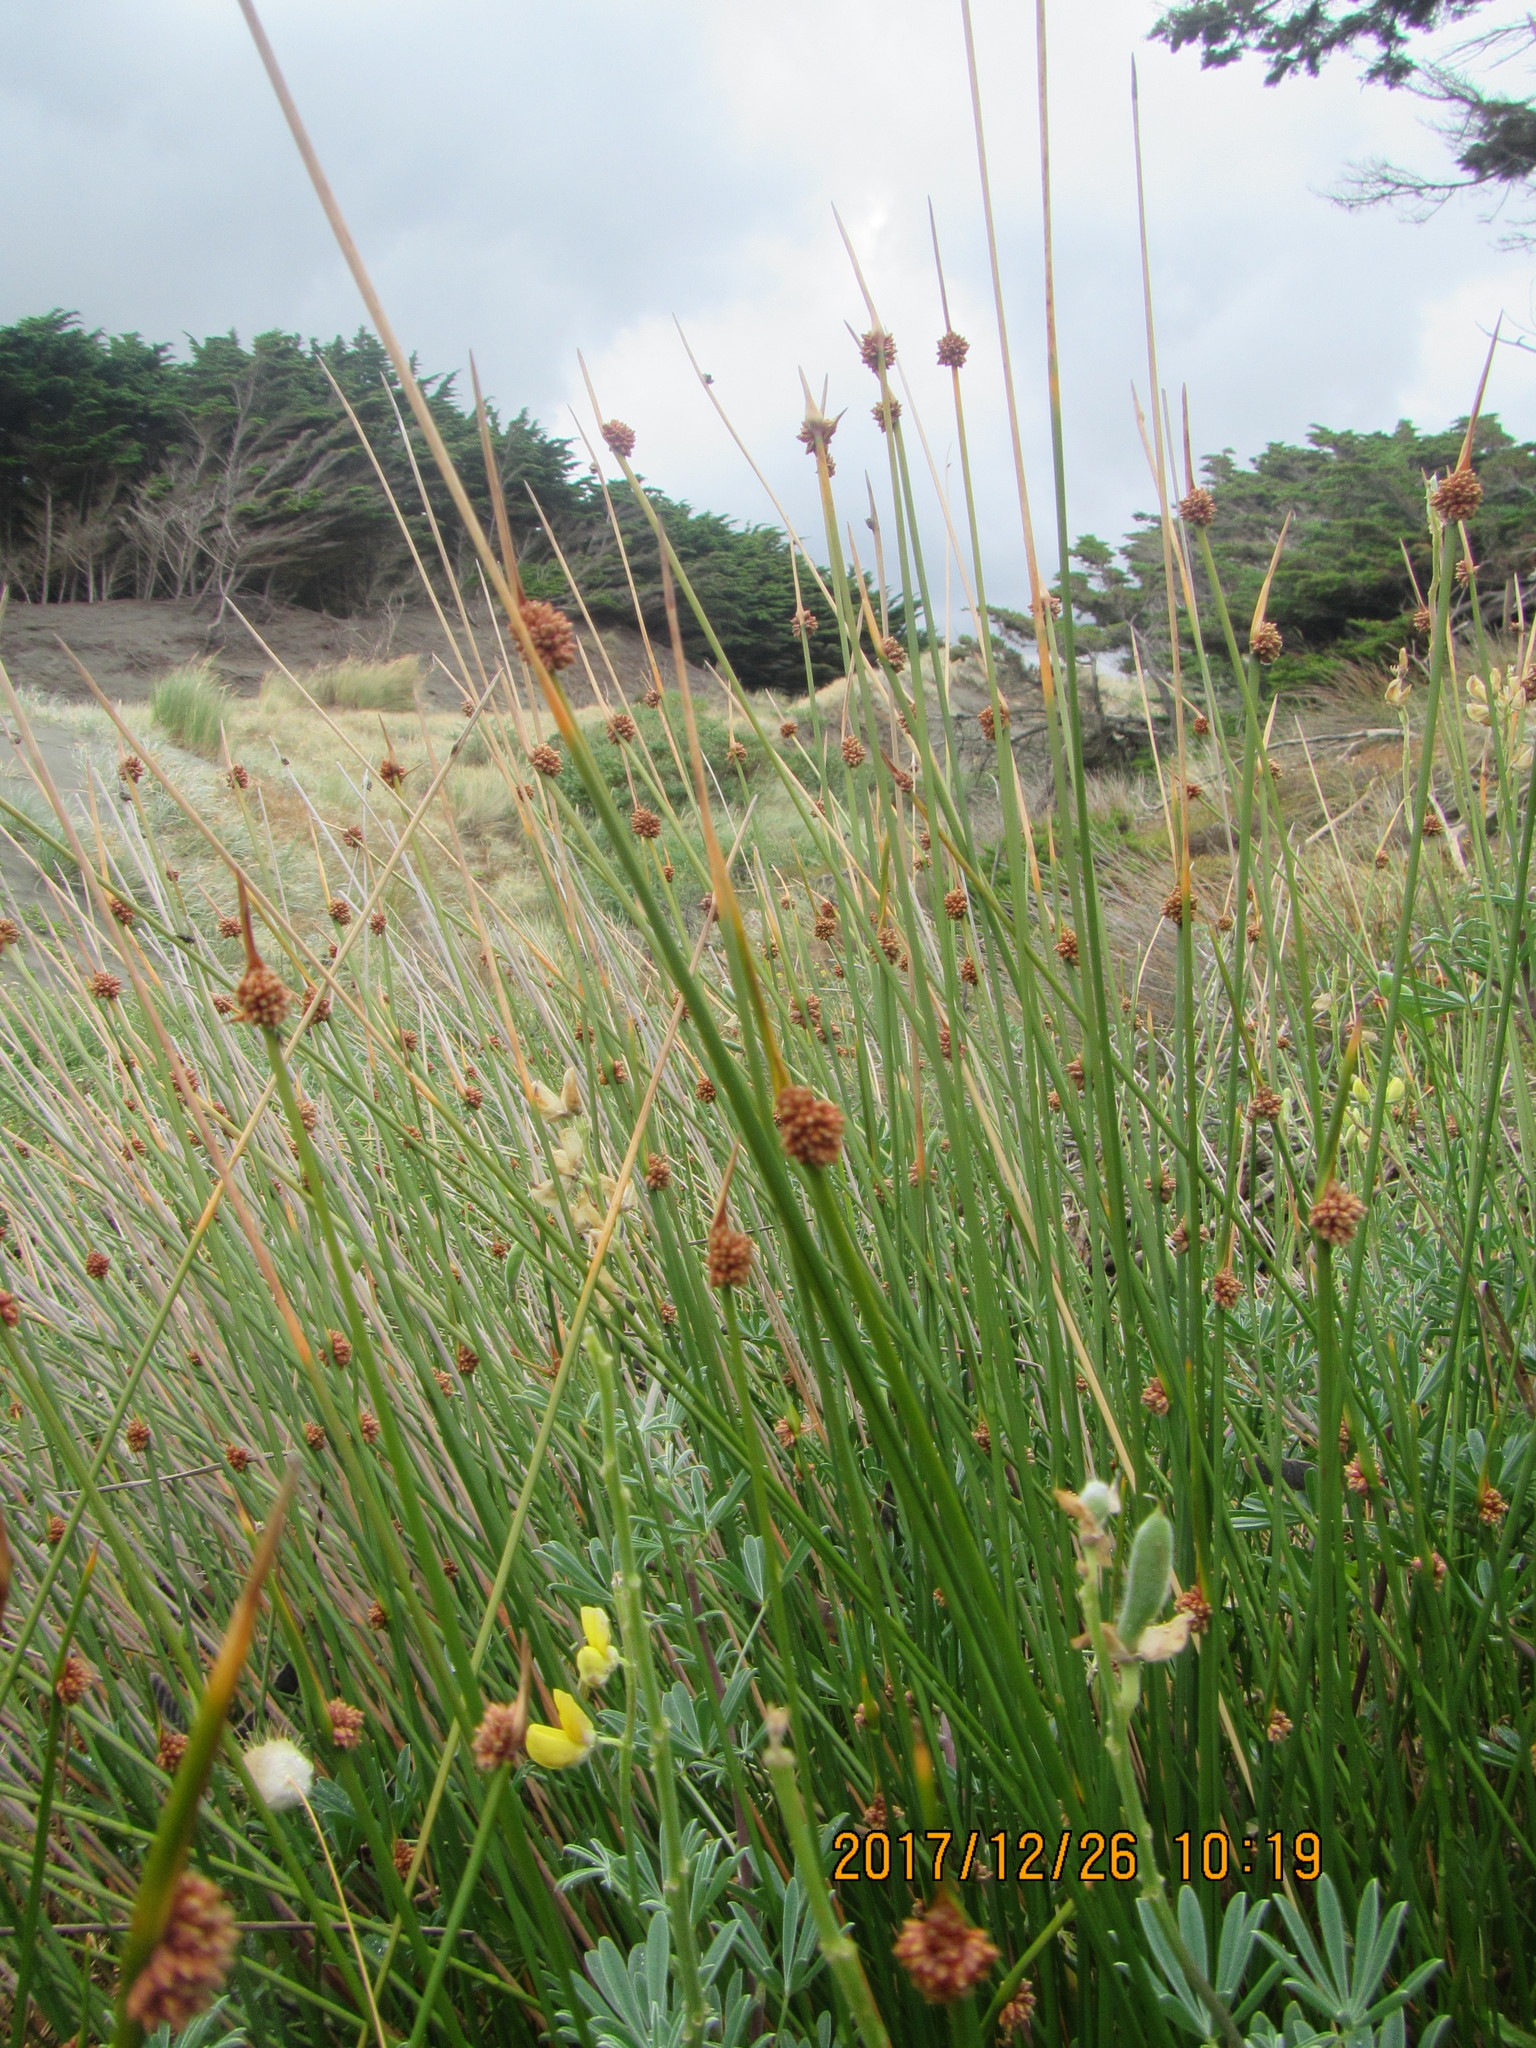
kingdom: Plantae
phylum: Tracheophyta
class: Liliopsida
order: Poales
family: Cyperaceae
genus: Ficinia
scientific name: Ficinia nodosa
